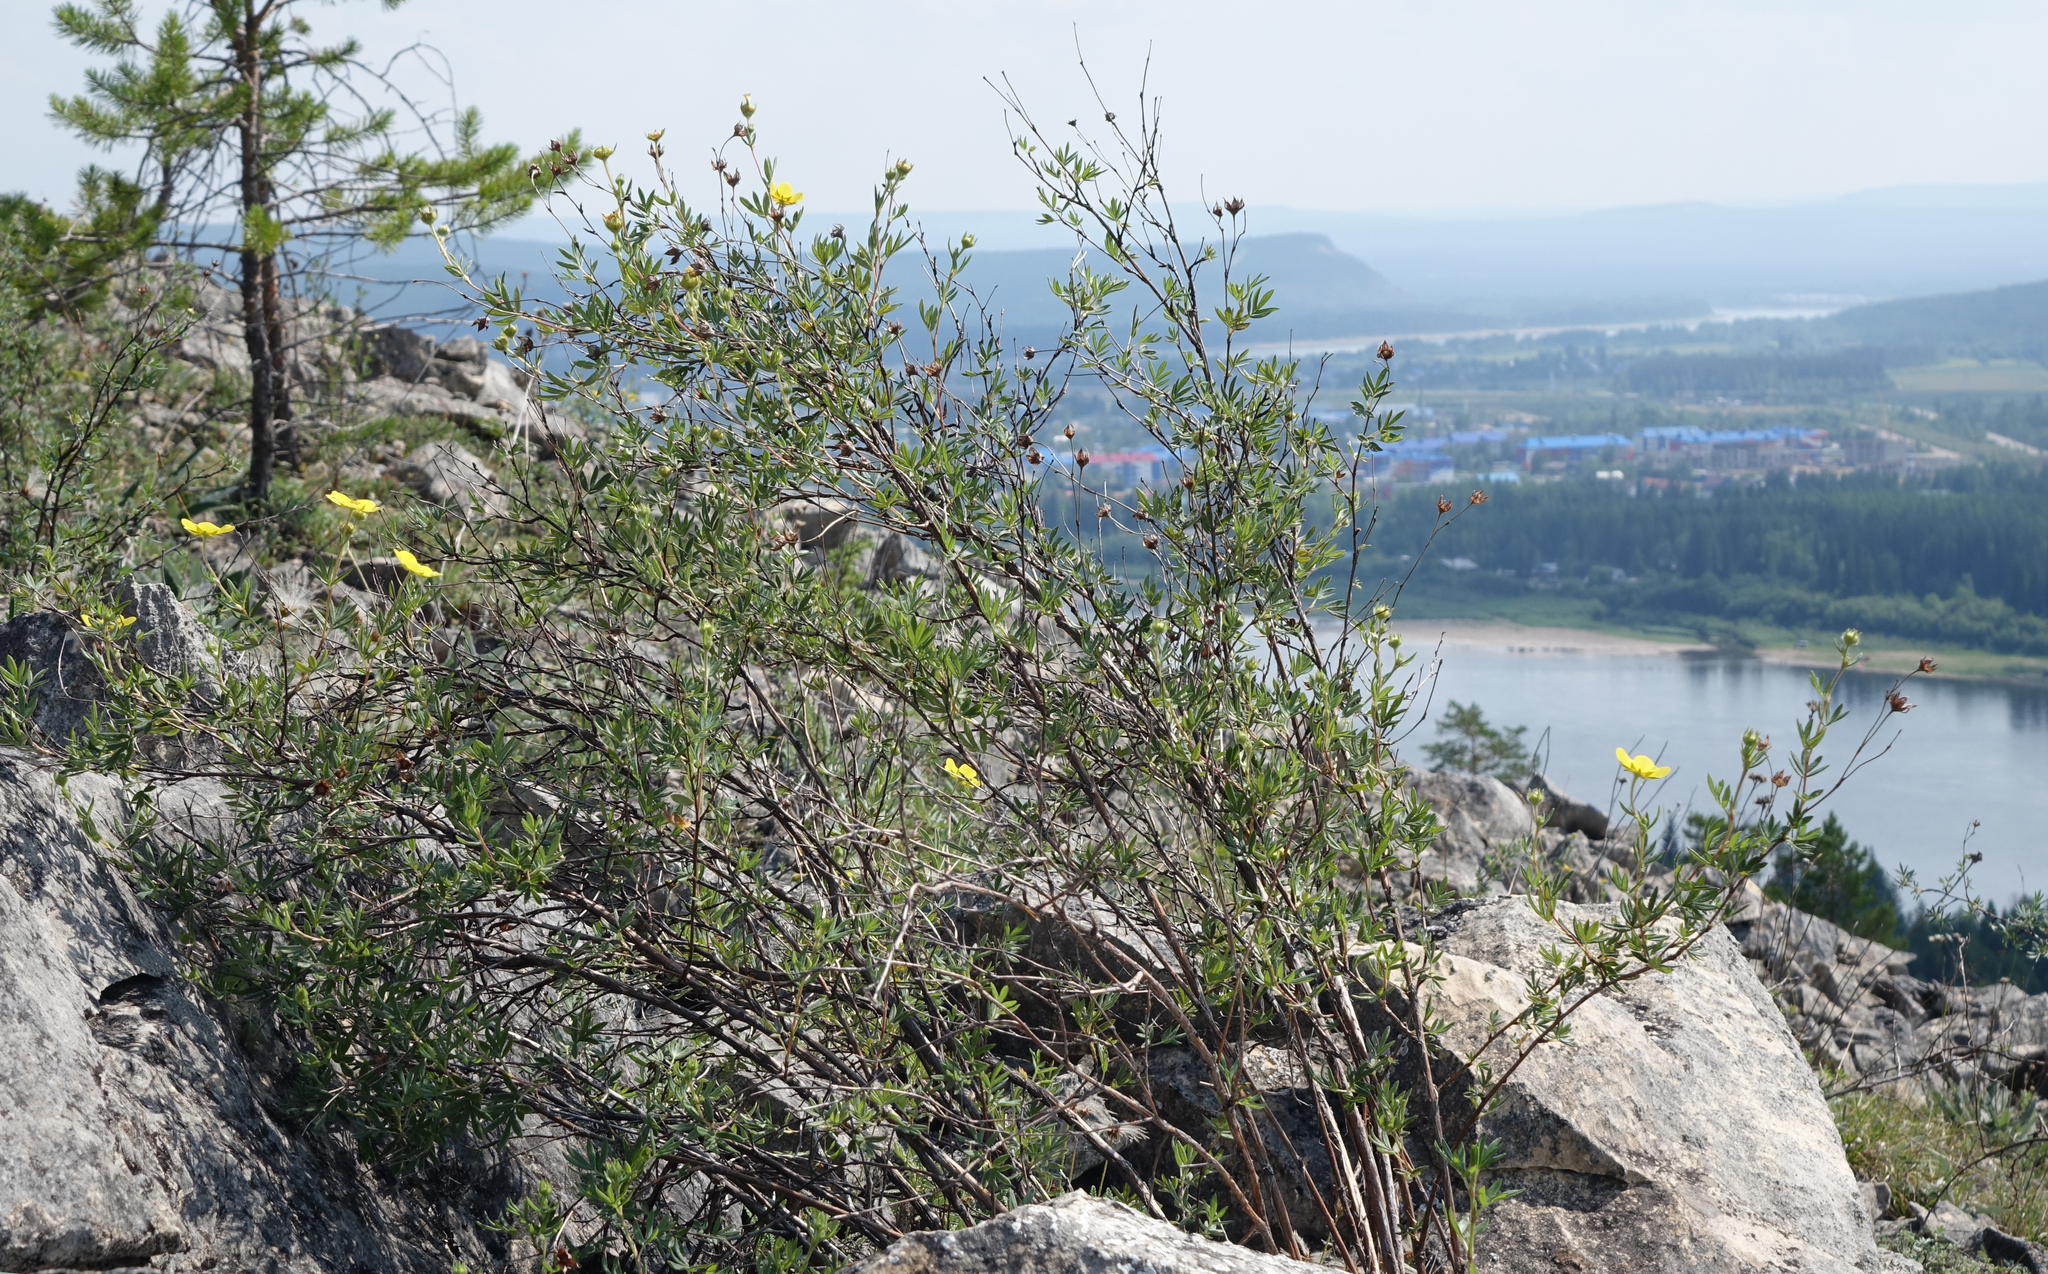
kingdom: Plantae
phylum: Tracheophyta
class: Magnoliopsida
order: Rosales
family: Rosaceae
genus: Dasiphora
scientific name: Dasiphora fruticosa
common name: Shrubby cinquefoil
